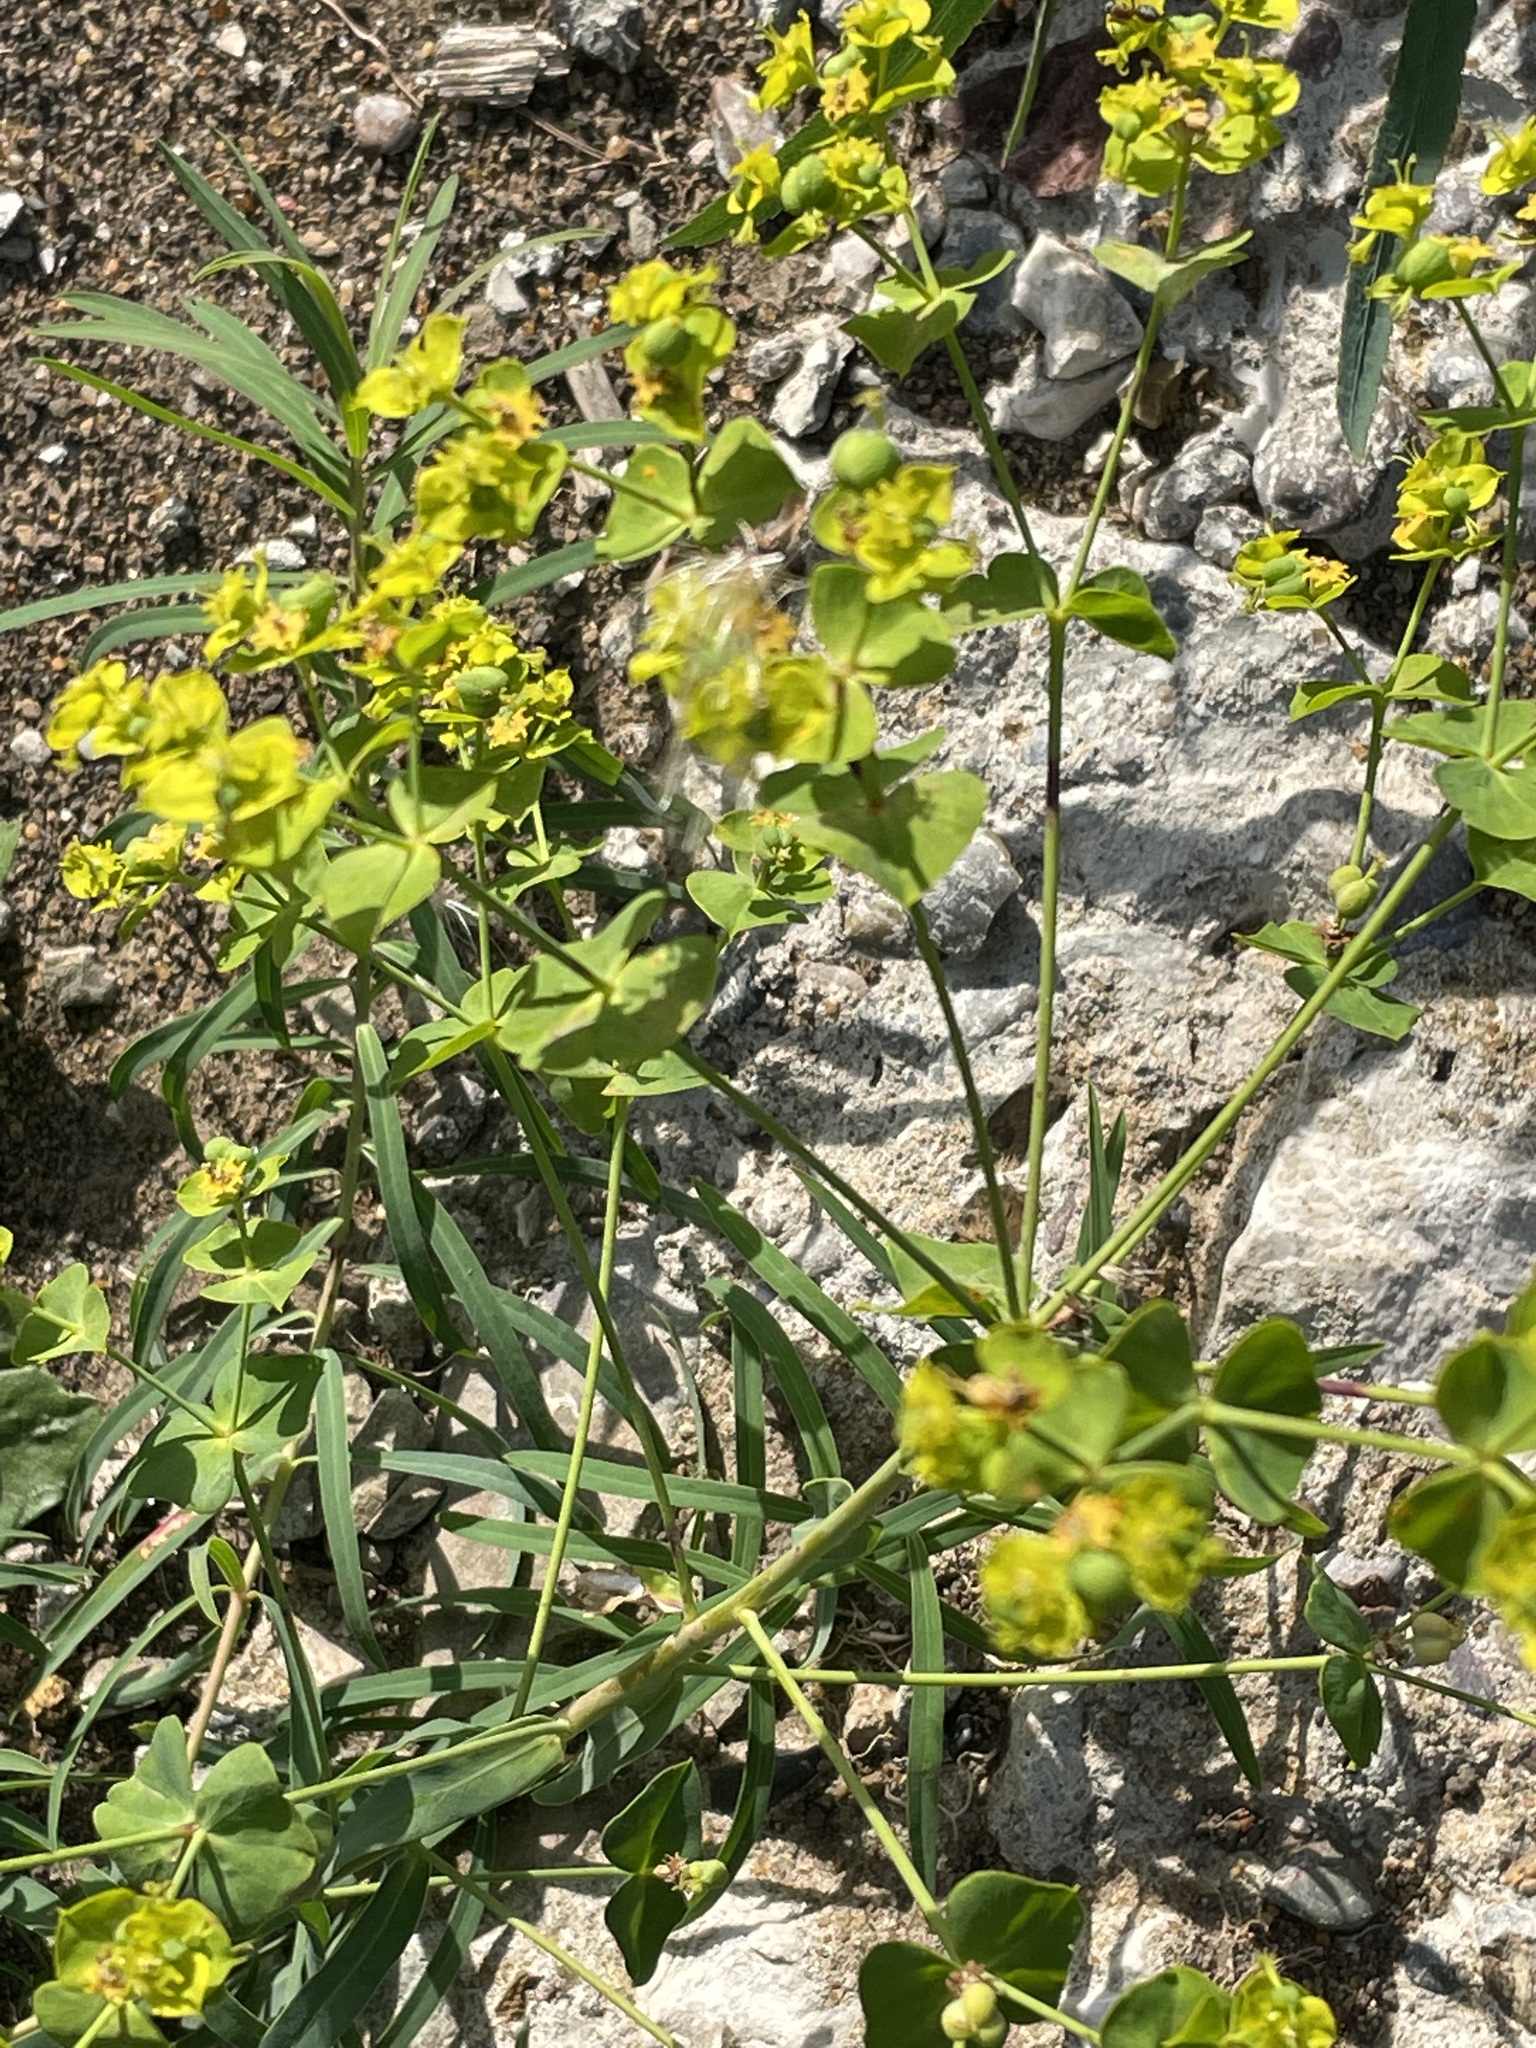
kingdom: Plantae
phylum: Tracheophyta
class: Magnoliopsida
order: Malpighiales
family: Euphorbiaceae
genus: Euphorbia
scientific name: Euphorbia virgata
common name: Leafy spurge
